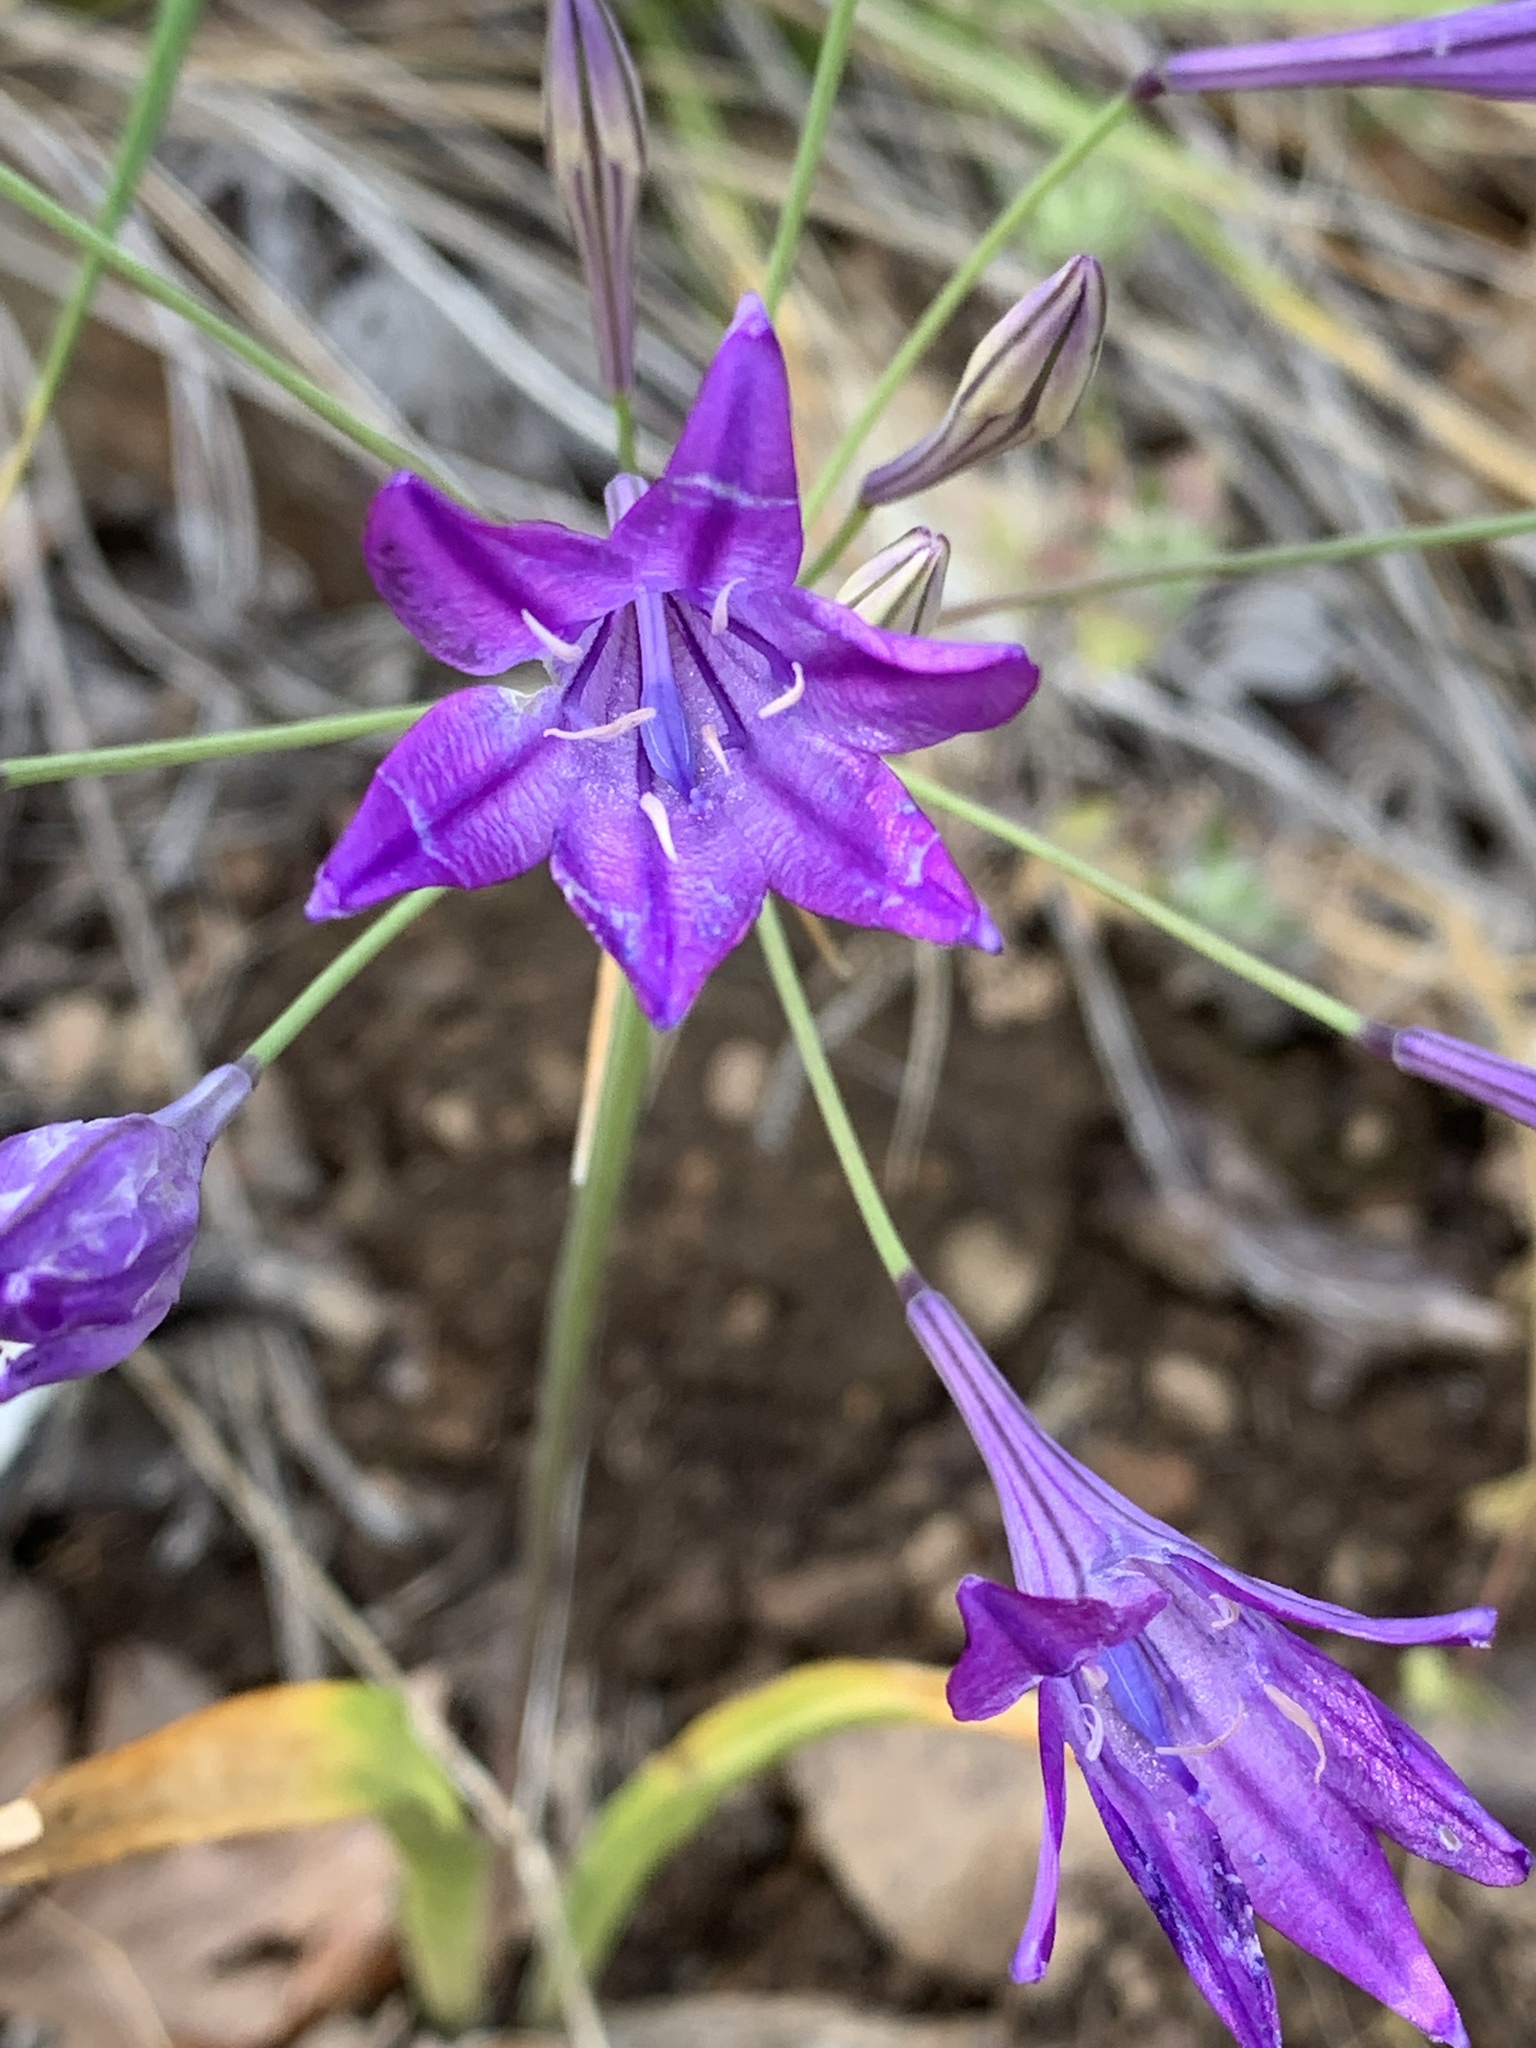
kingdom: Plantae
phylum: Tracheophyta
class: Liliopsida
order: Asparagales
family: Asparagaceae
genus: Triteleia
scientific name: Triteleia laxa
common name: Triplet-lily
